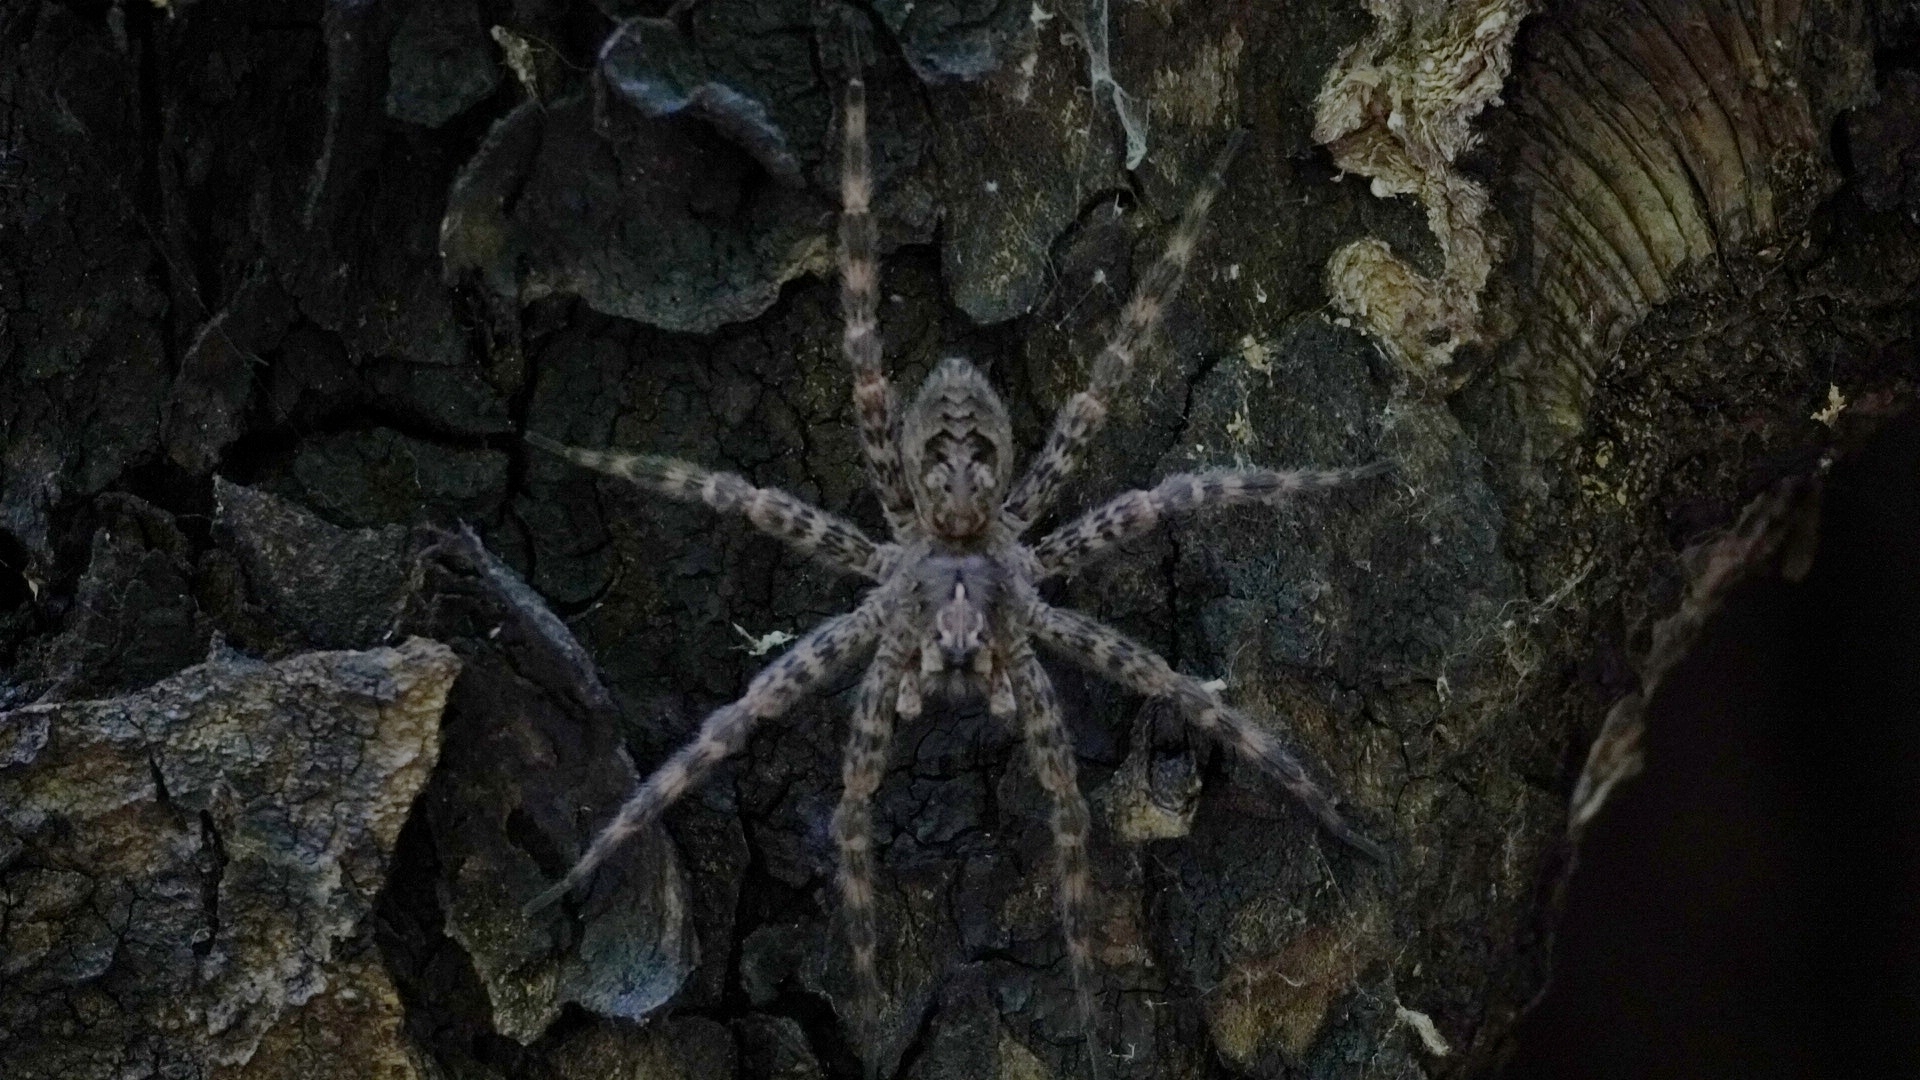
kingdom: Animalia
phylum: Arthropoda
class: Arachnida
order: Araneae
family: Pisauridae
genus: Dolomedes
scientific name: Dolomedes tenebrosus
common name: Dark fishing spider
